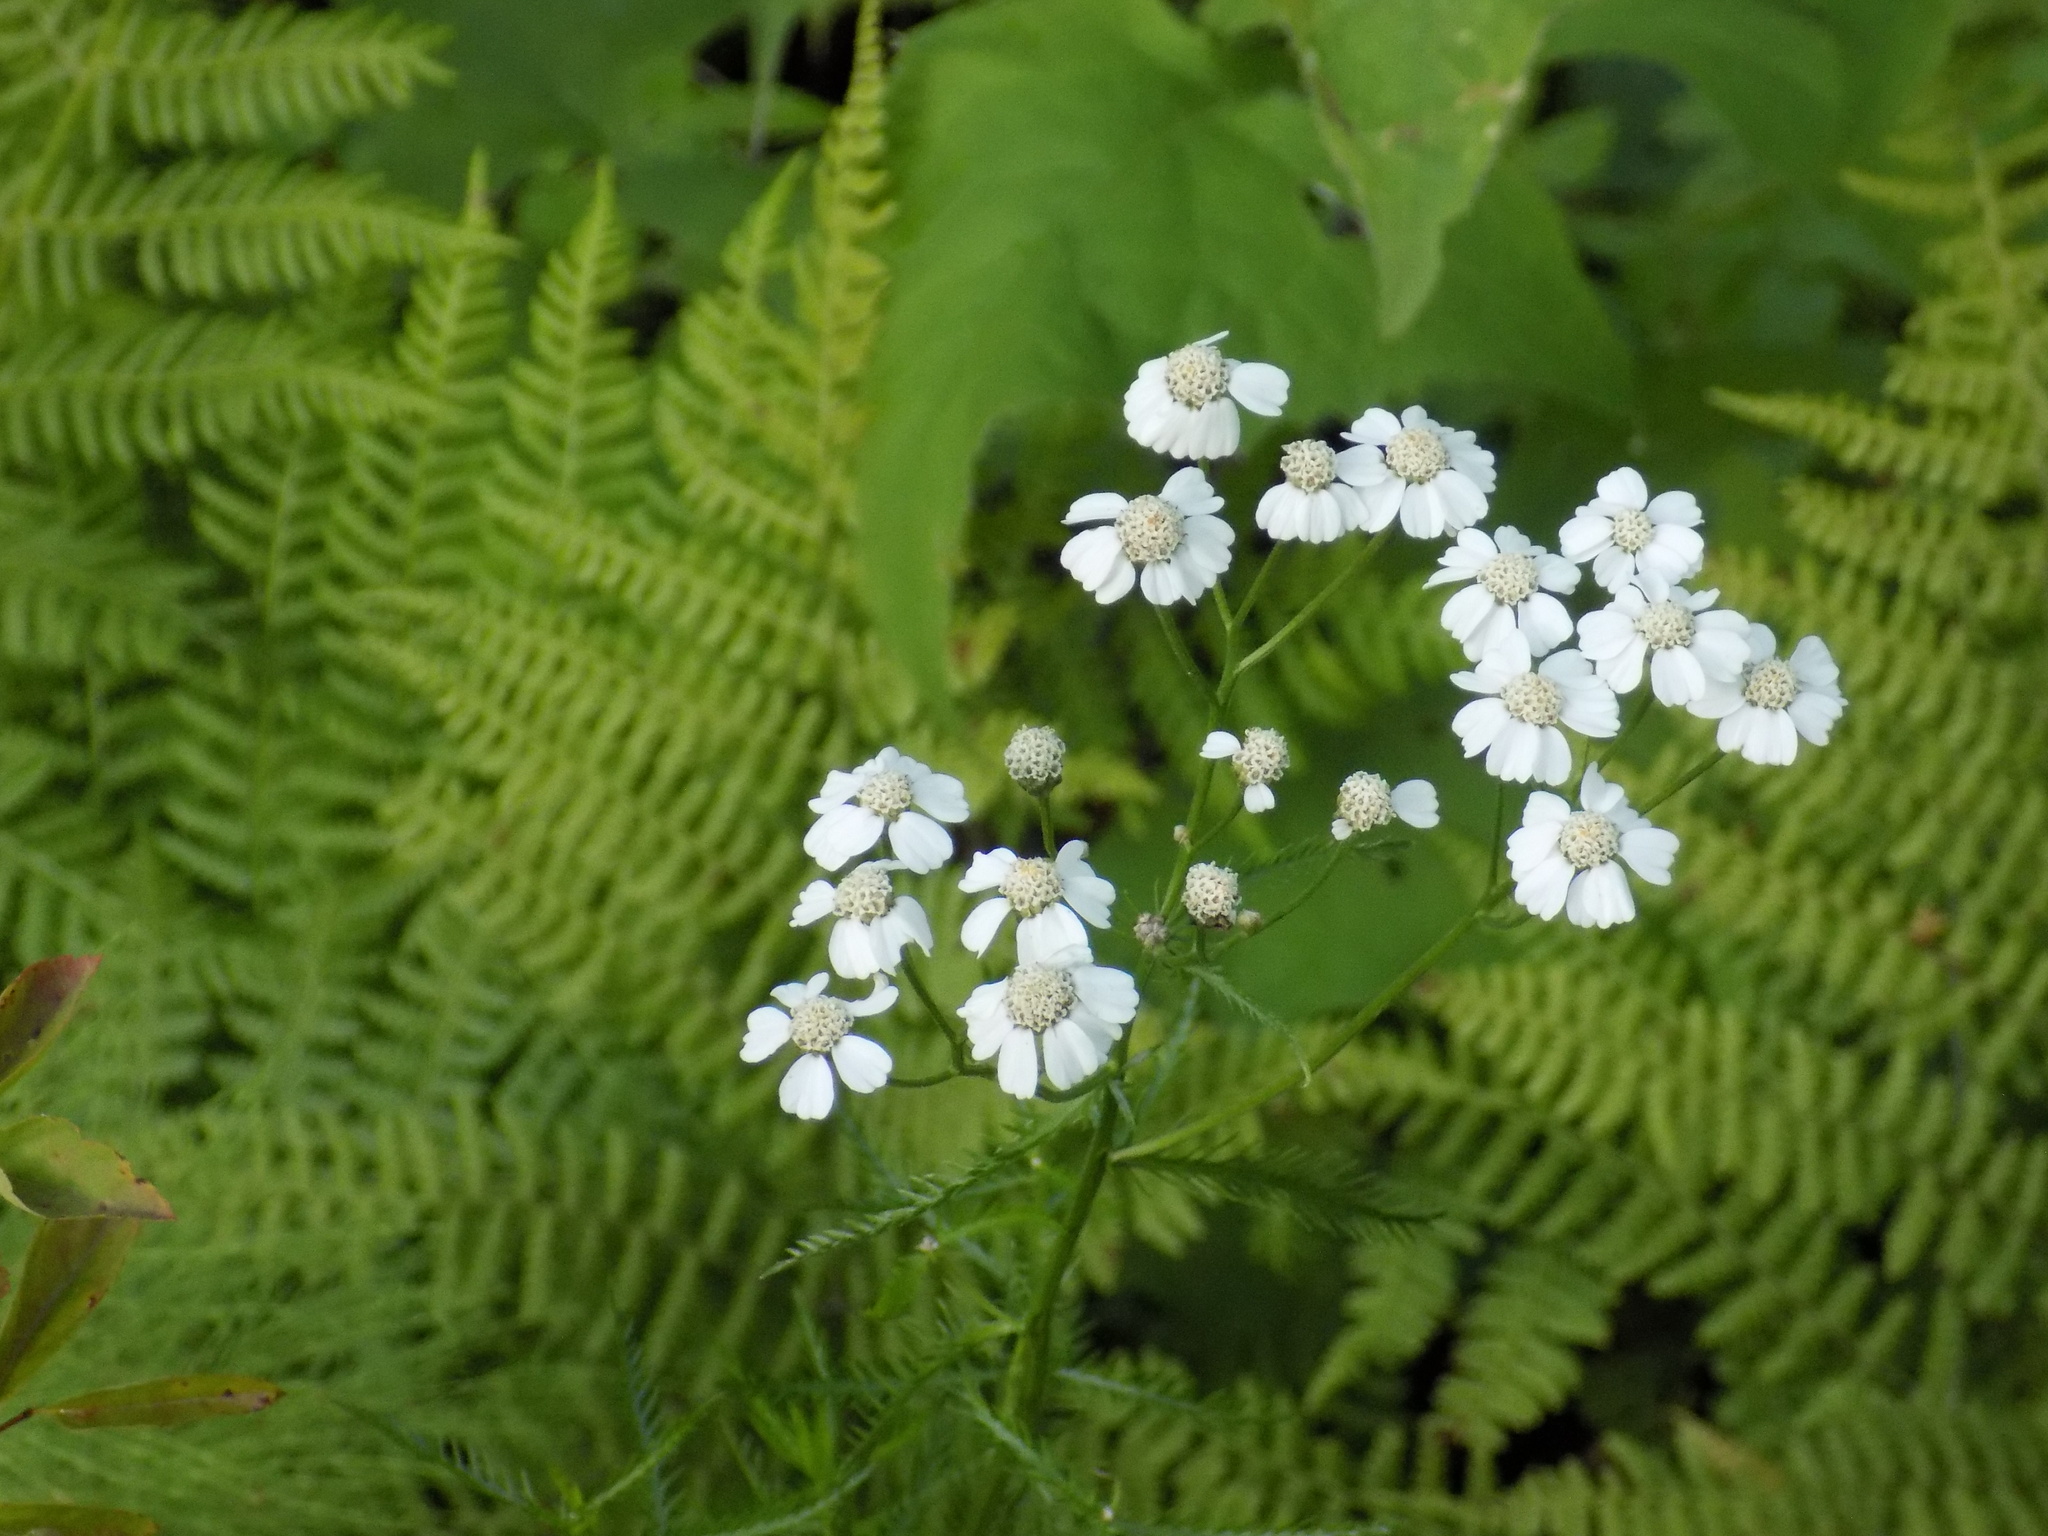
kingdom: Plantae
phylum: Tracheophyta
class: Magnoliopsida
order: Asterales
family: Asteraceae
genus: Achillea
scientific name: Achillea impatiens
